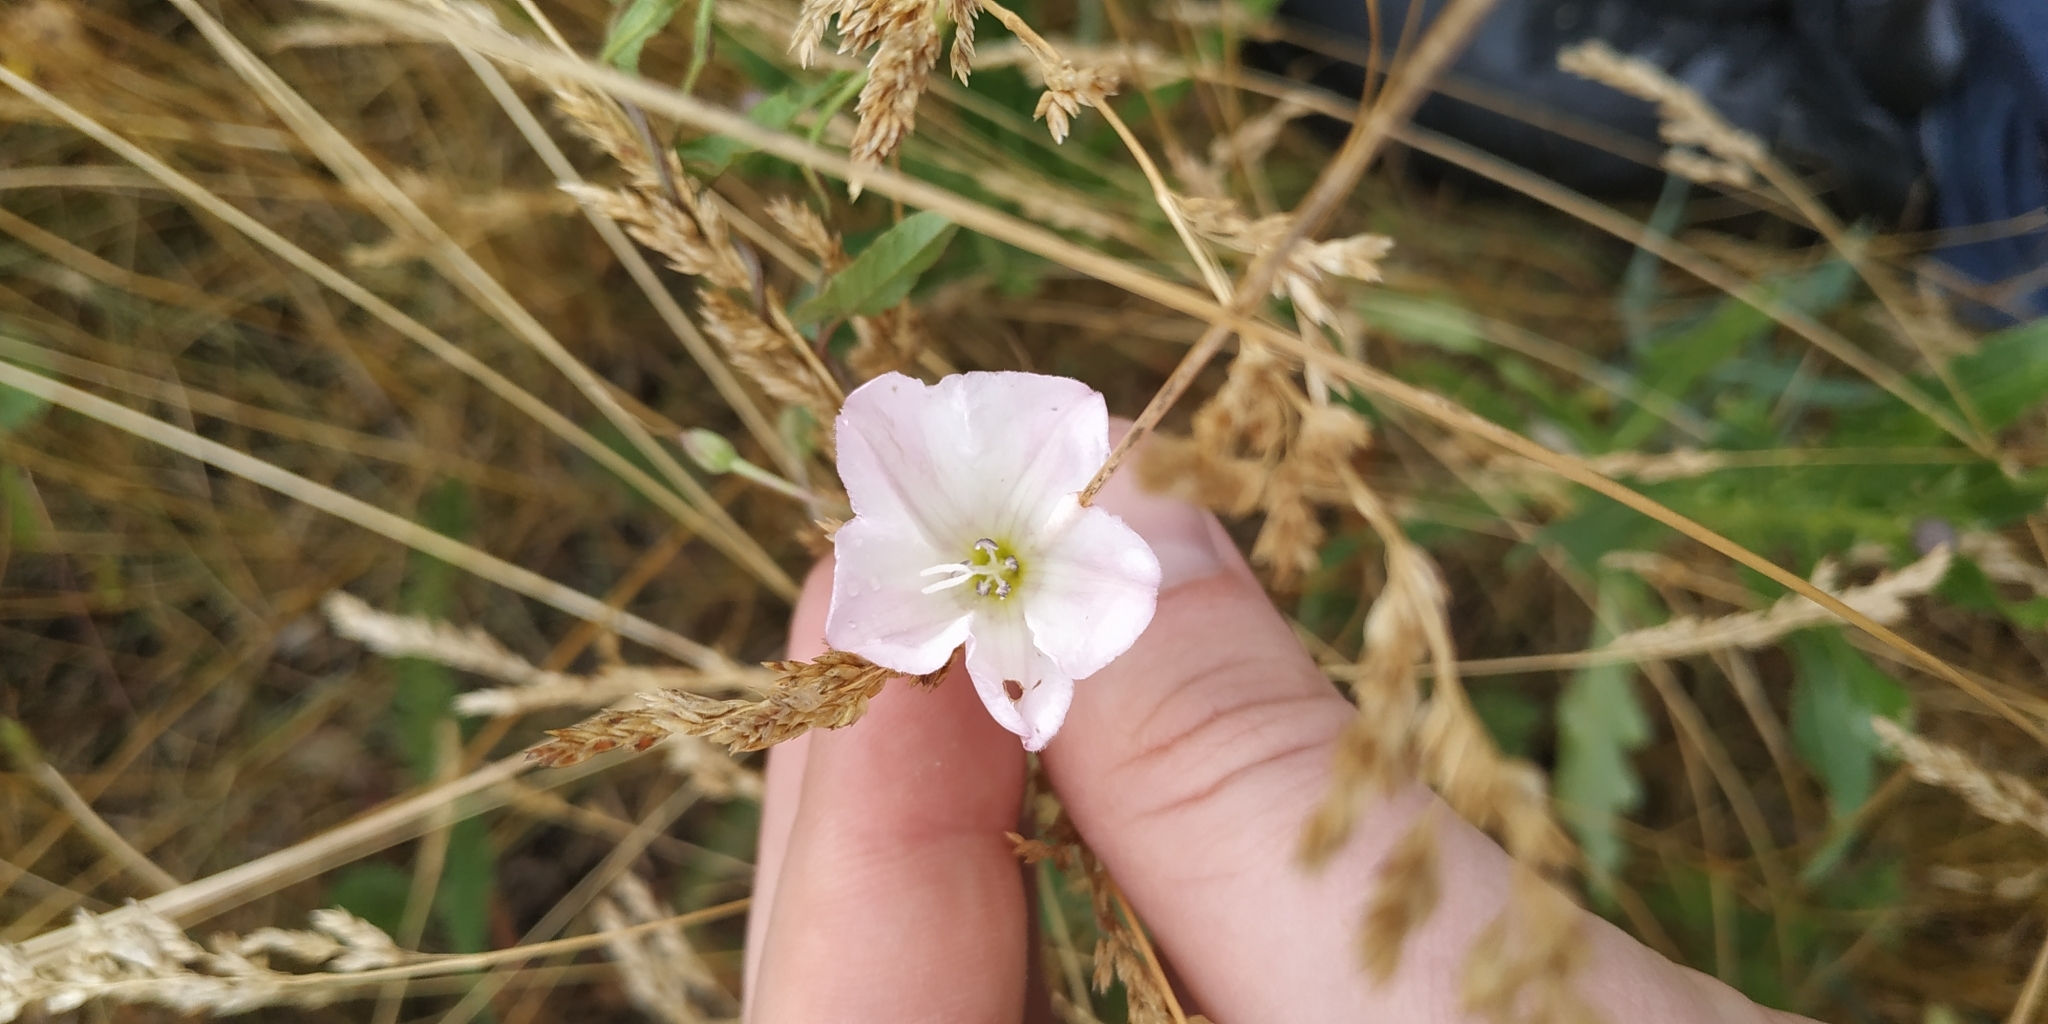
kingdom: Plantae
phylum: Tracheophyta
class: Magnoliopsida
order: Solanales
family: Convolvulaceae
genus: Convolvulus
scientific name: Convolvulus arvensis
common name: Field bindweed
